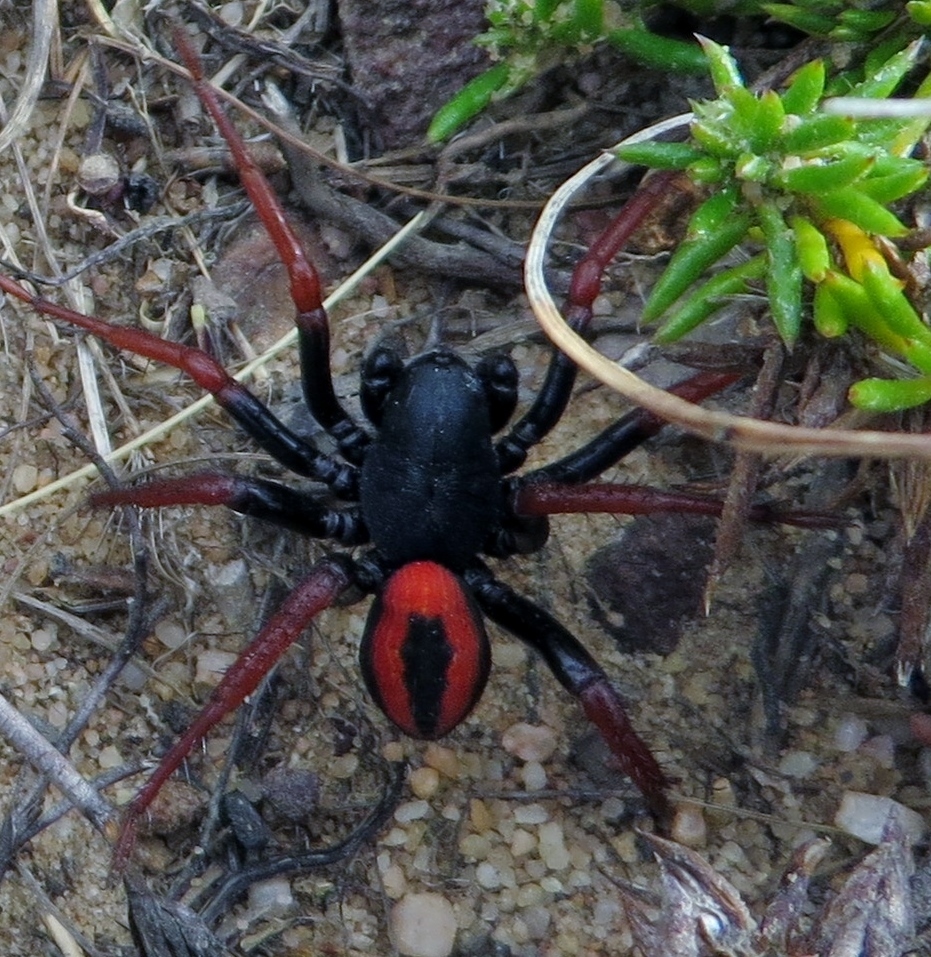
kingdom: Animalia
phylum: Arthropoda
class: Arachnida
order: Araneae
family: Zodariidae
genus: Psammorygma
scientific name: Psammorygma aculeatum
